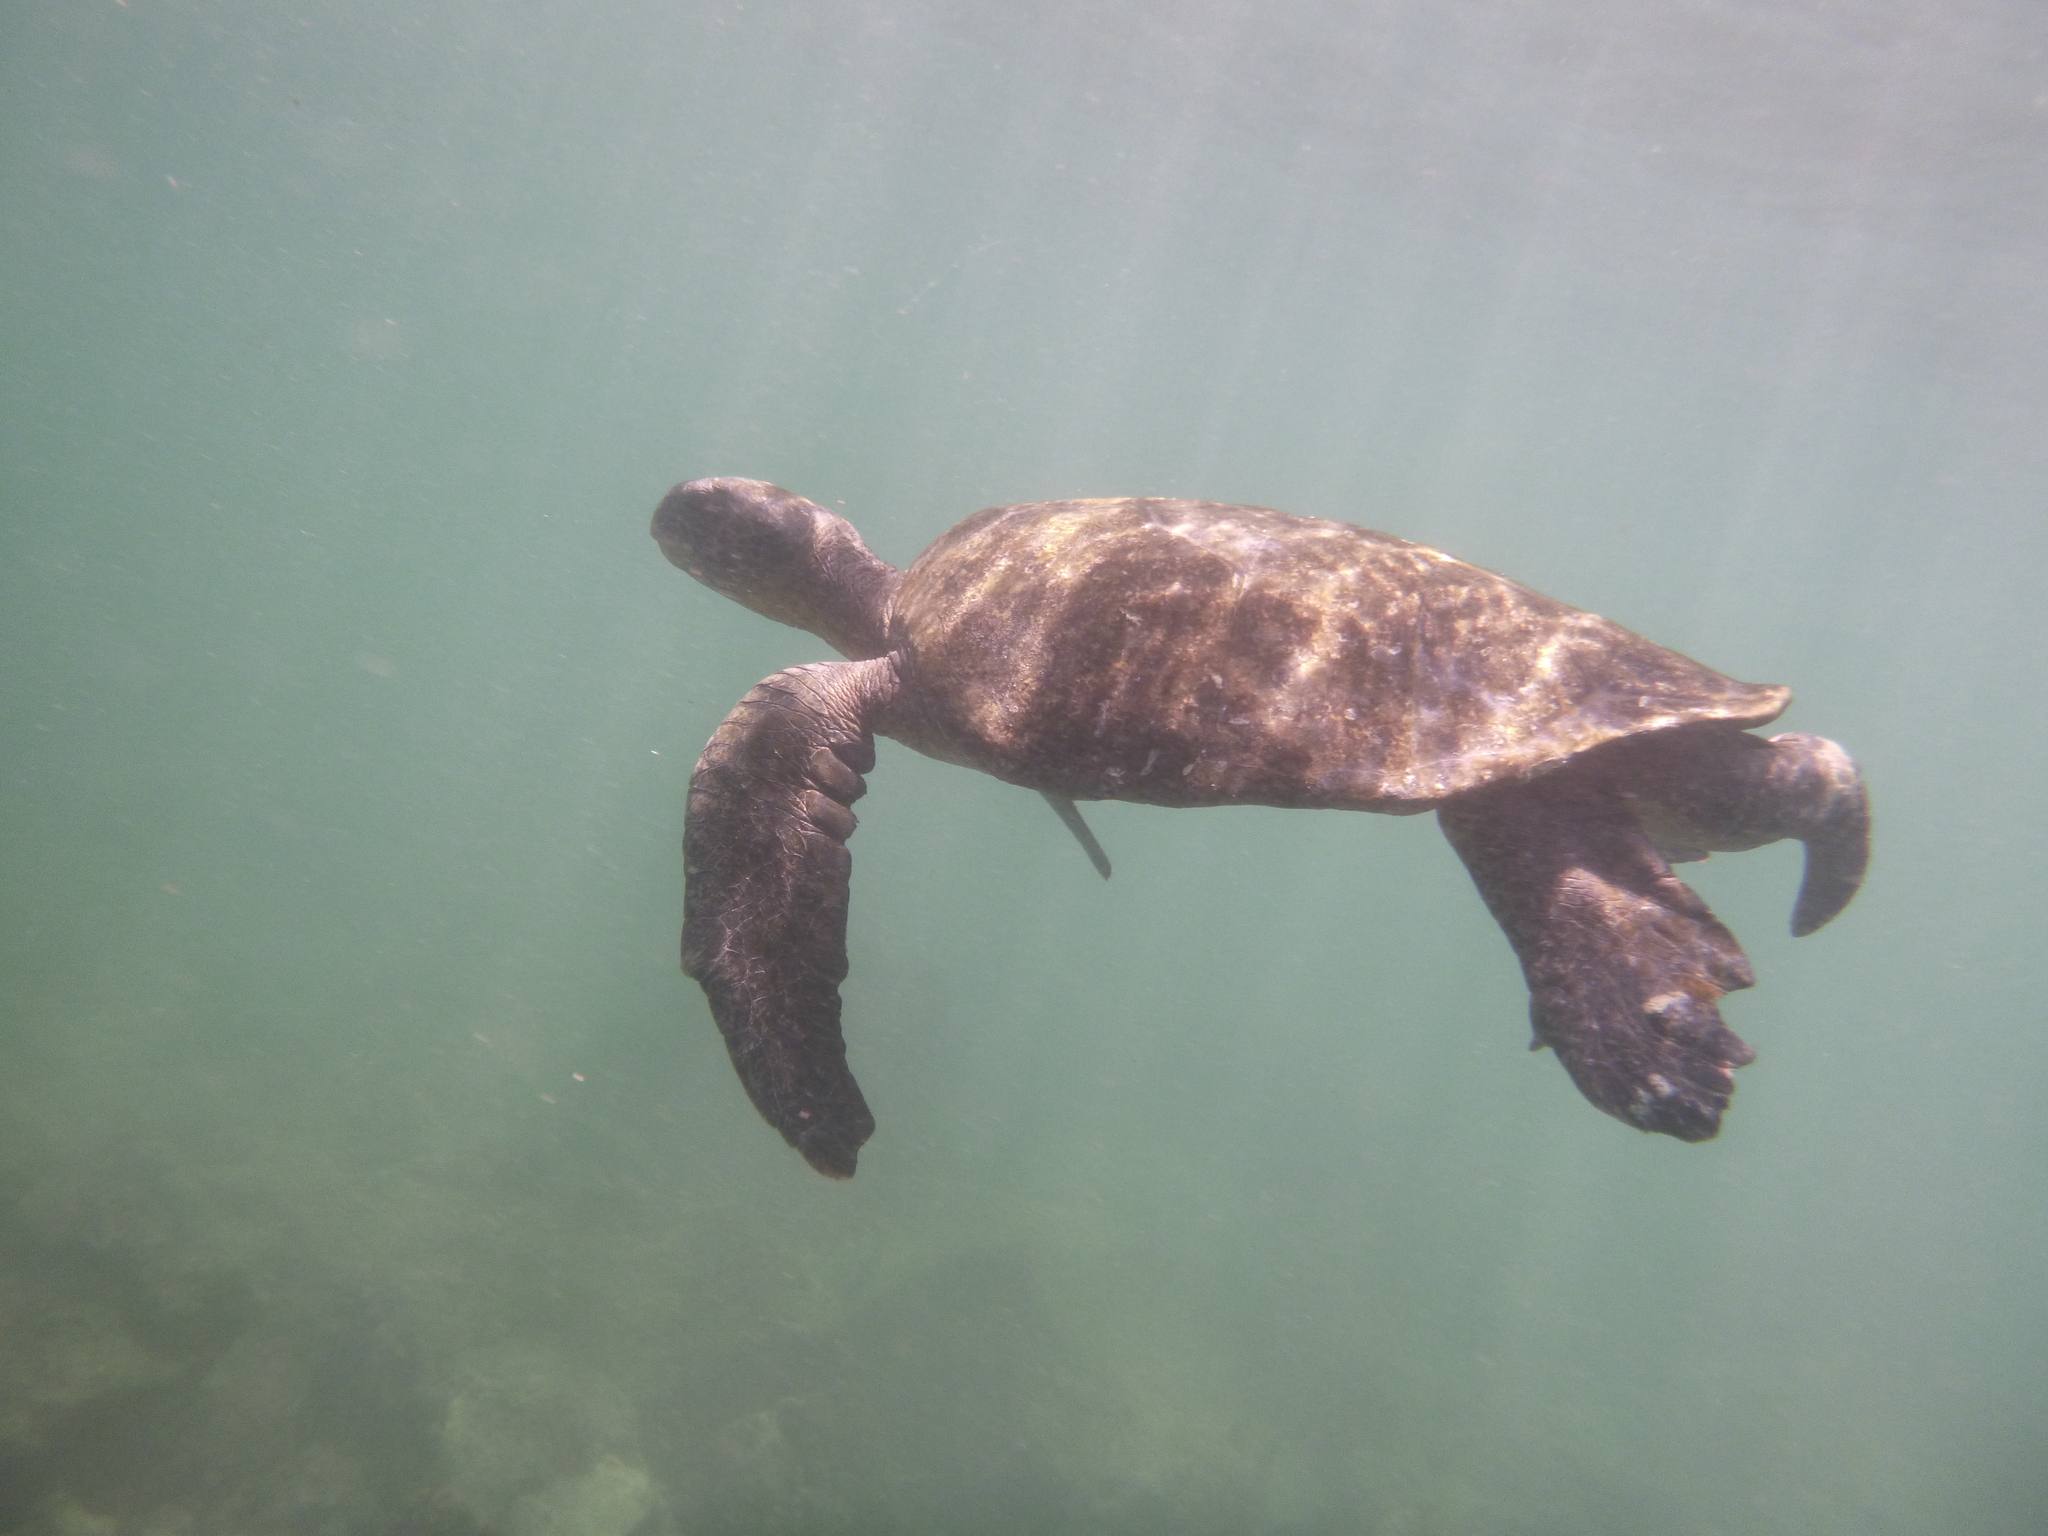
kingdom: Animalia
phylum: Chordata
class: Testudines
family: Cheloniidae
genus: Chelonia
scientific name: Chelonia mydas
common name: Green turtle
